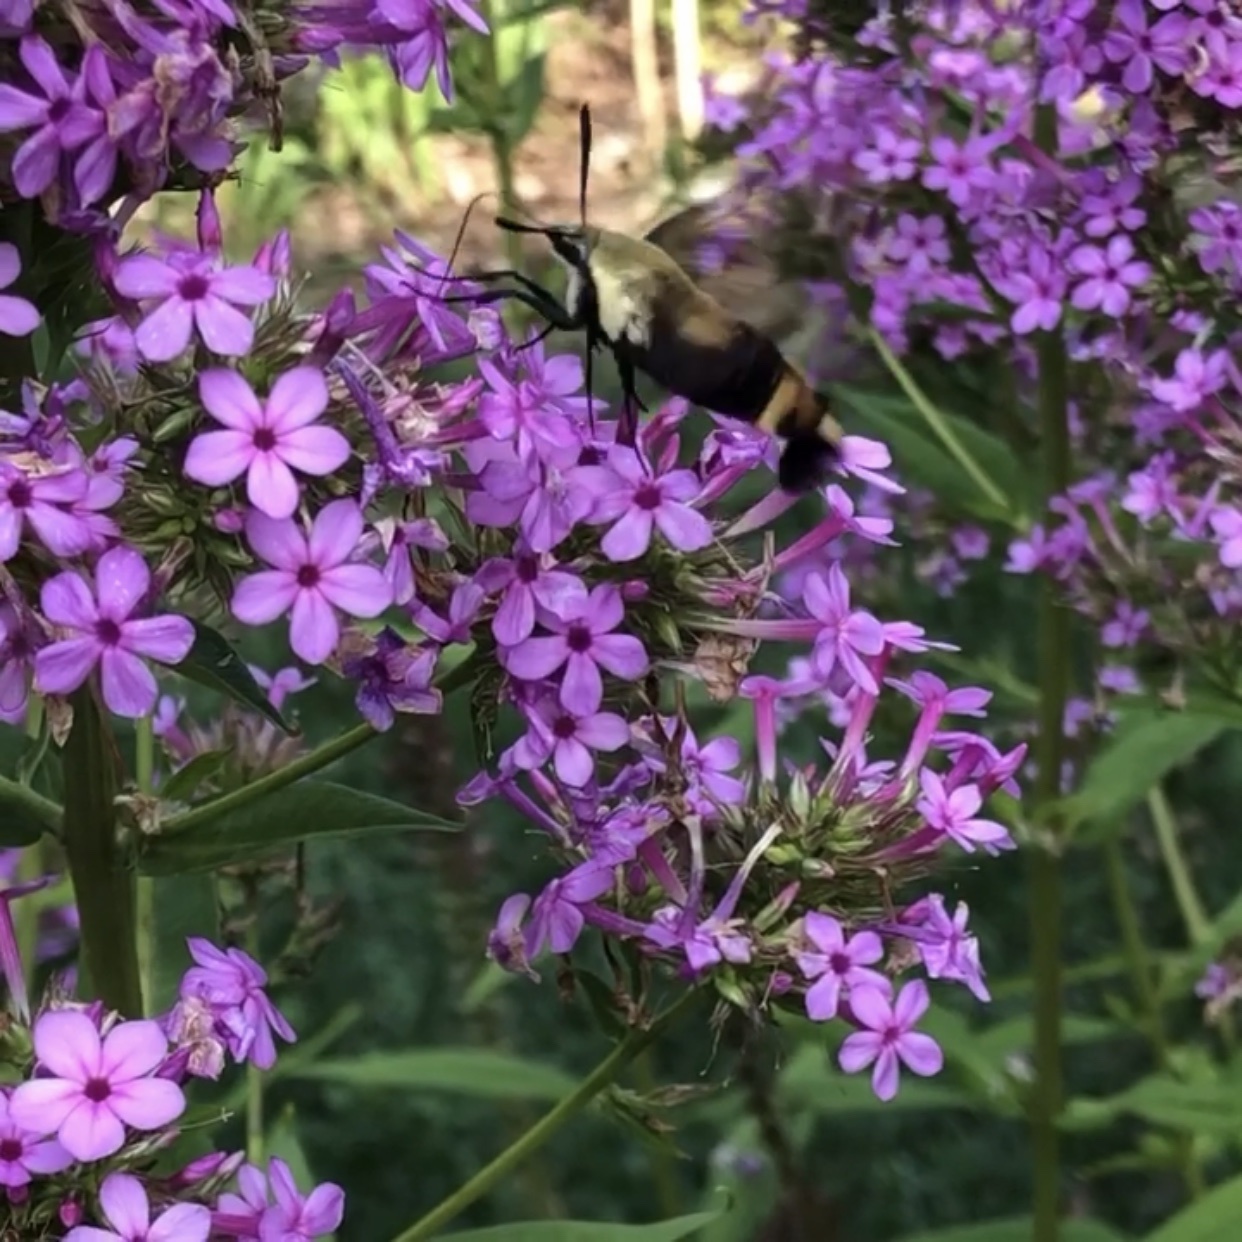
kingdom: Animalia
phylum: Arthropoda
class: Insecta
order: Lepidoptera
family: Sphingidae
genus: Hemaris
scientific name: Hemaris diffinis
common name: Bumblebee moth
